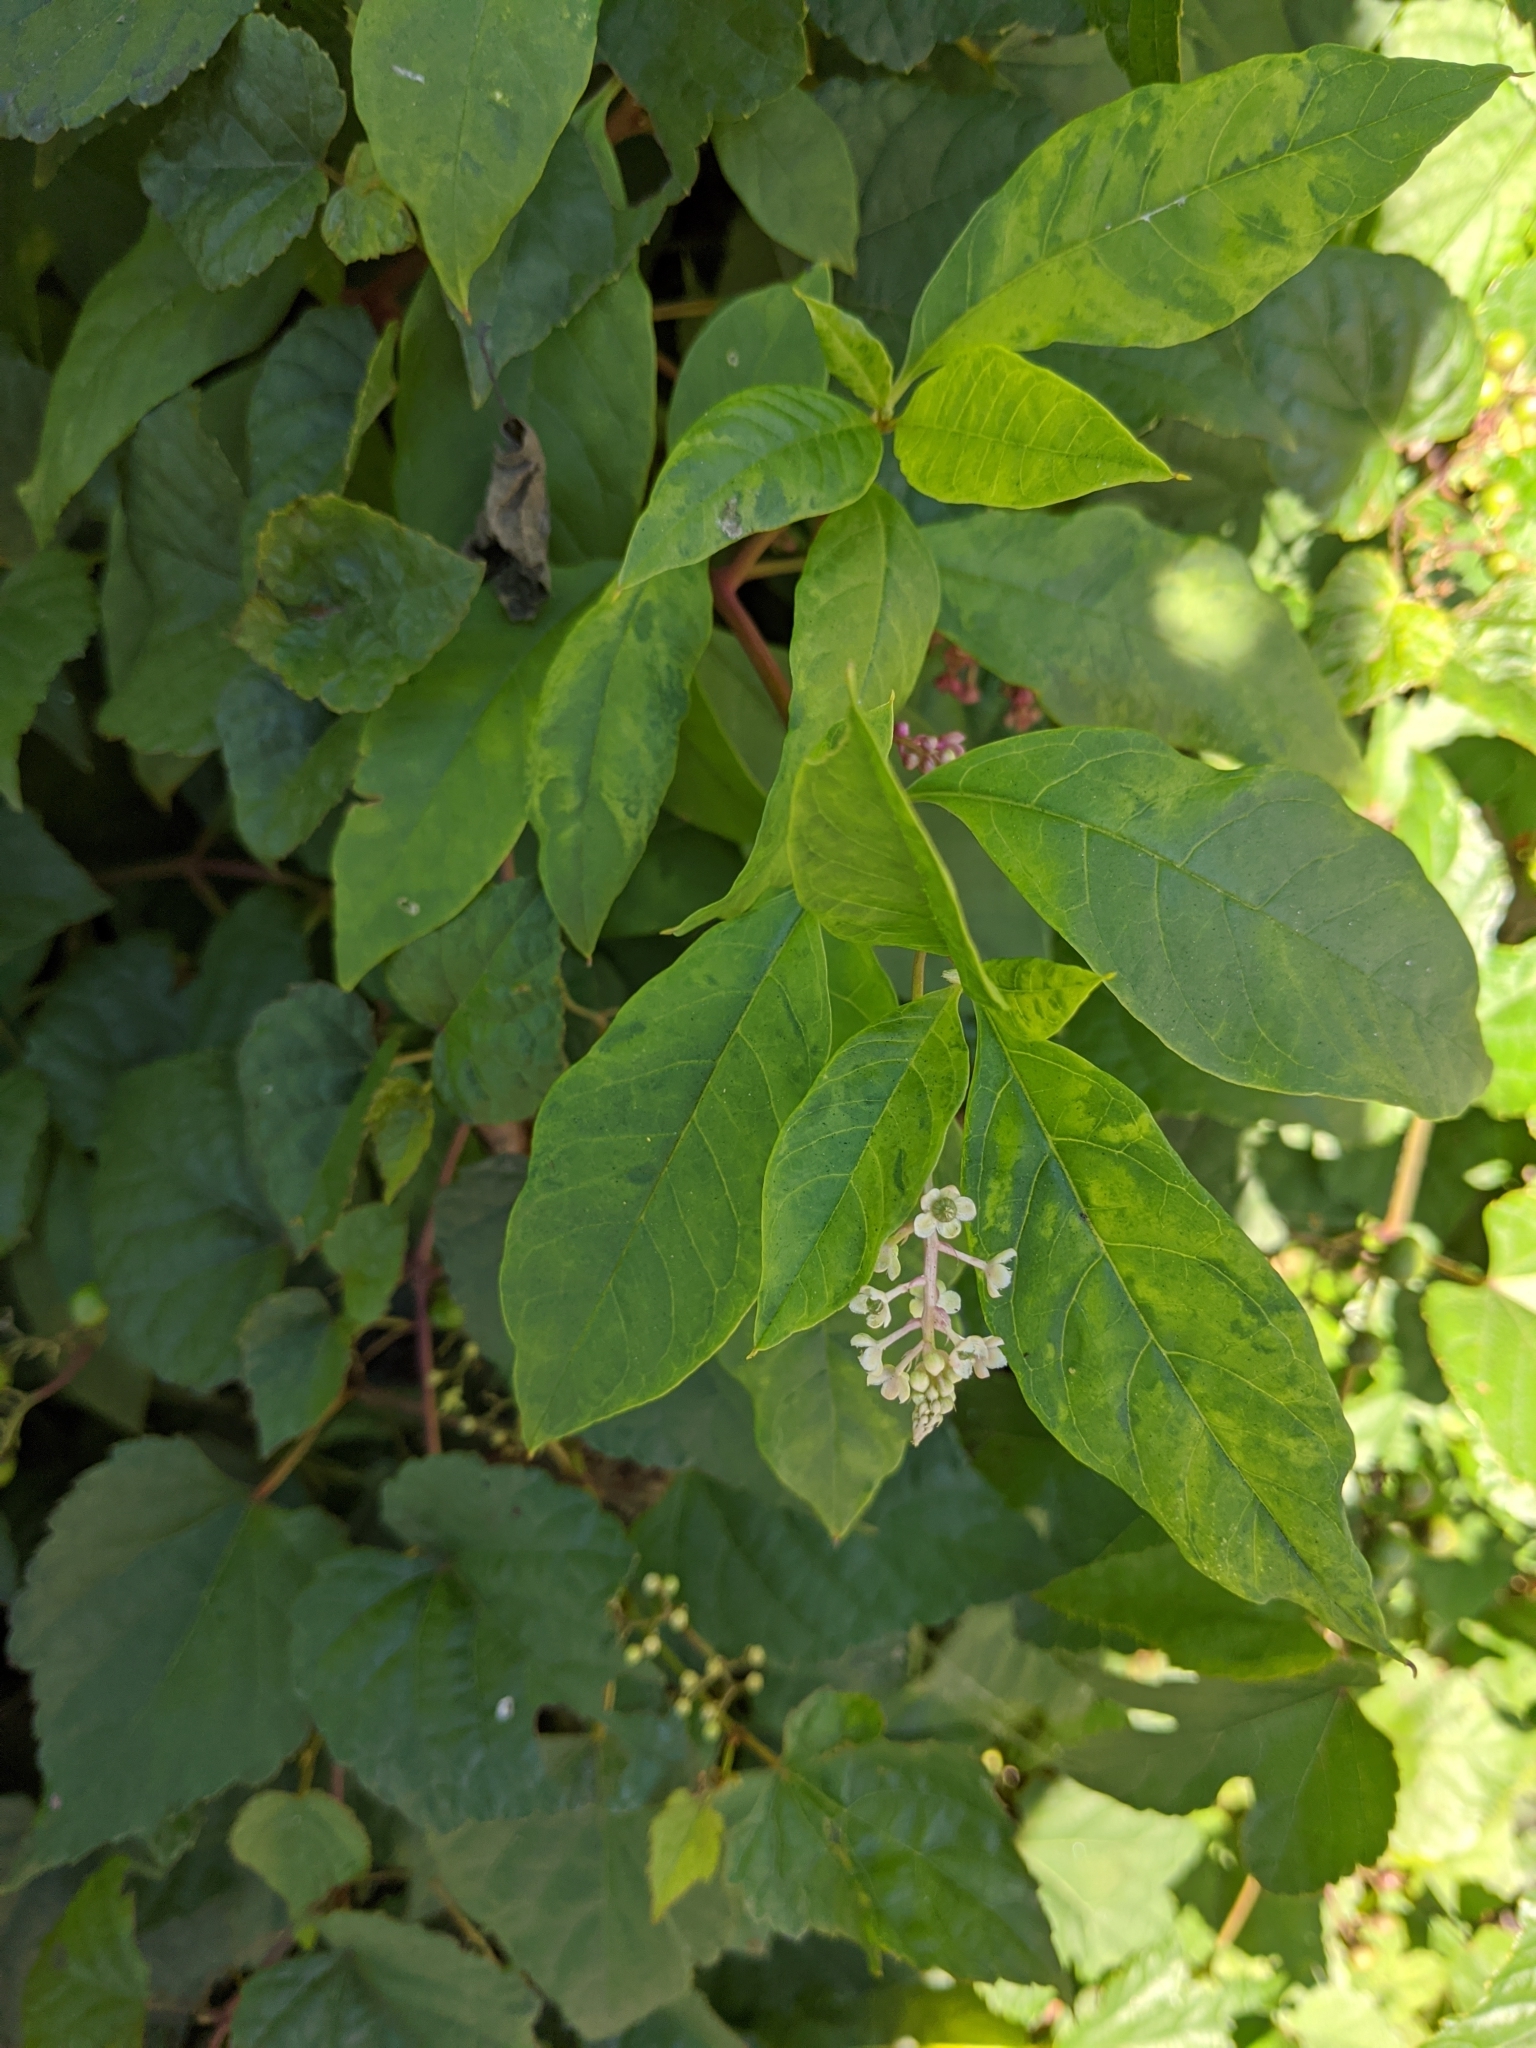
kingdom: Plantae
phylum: Tracheophyta
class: Magnoliopsida
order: Caryophyllales
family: Phytolaccaceae
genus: Phytolacca
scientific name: Phytolacca americana
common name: American pokeweed
